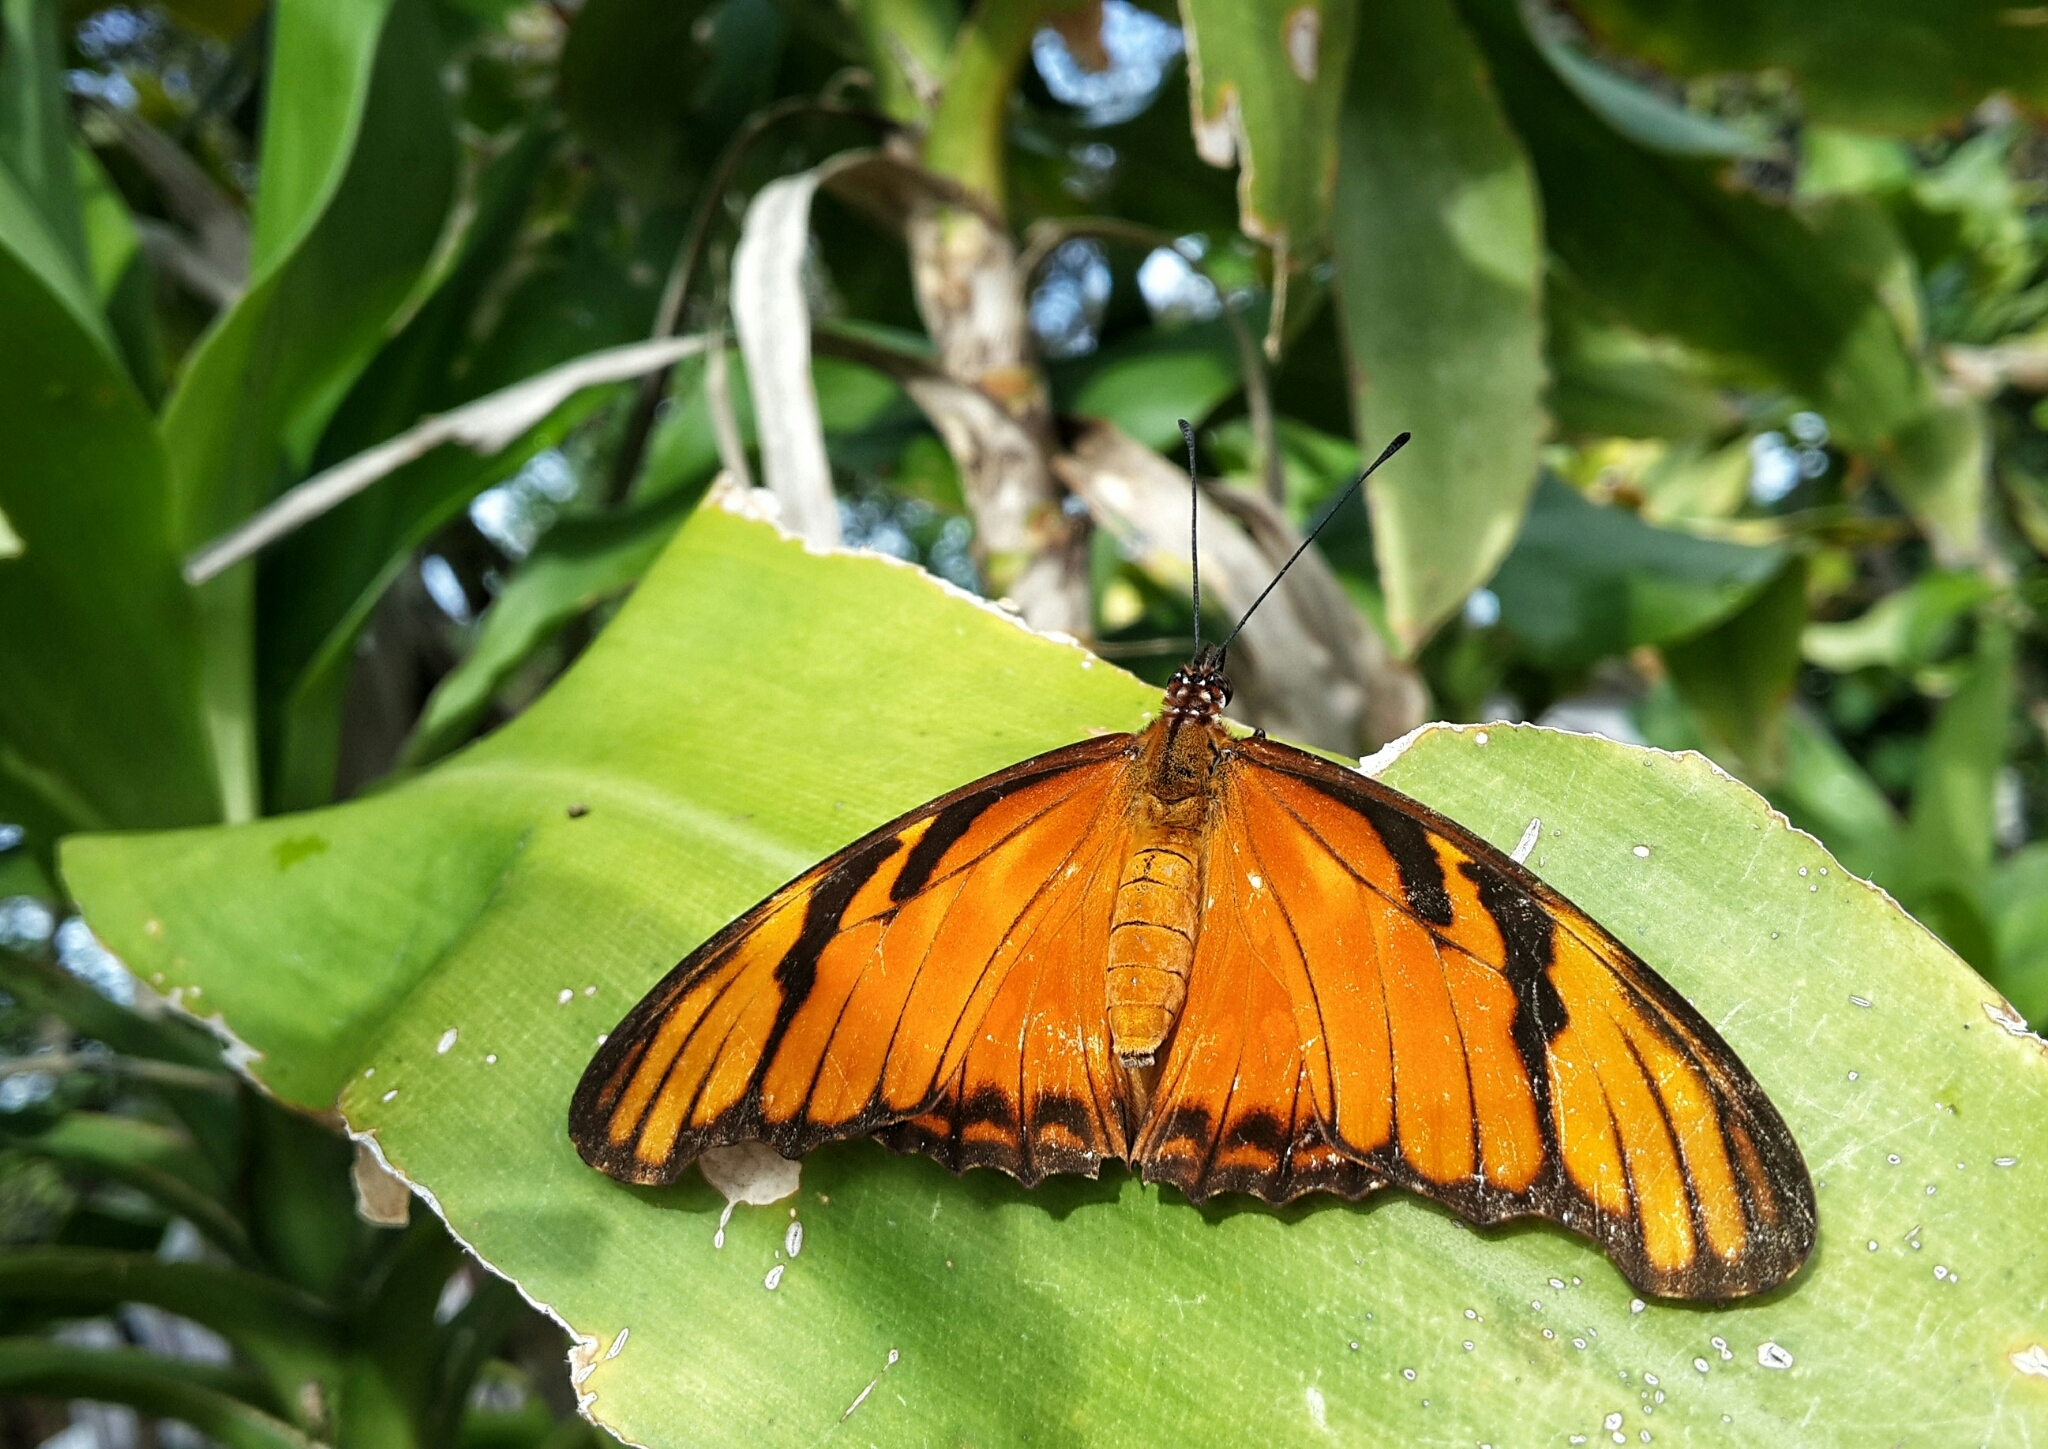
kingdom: Animalia
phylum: Arthropoda
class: Insecta
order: Lepidoptera
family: Nymphalidae
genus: Dione
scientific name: Dione juno
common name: Juno silverspot
